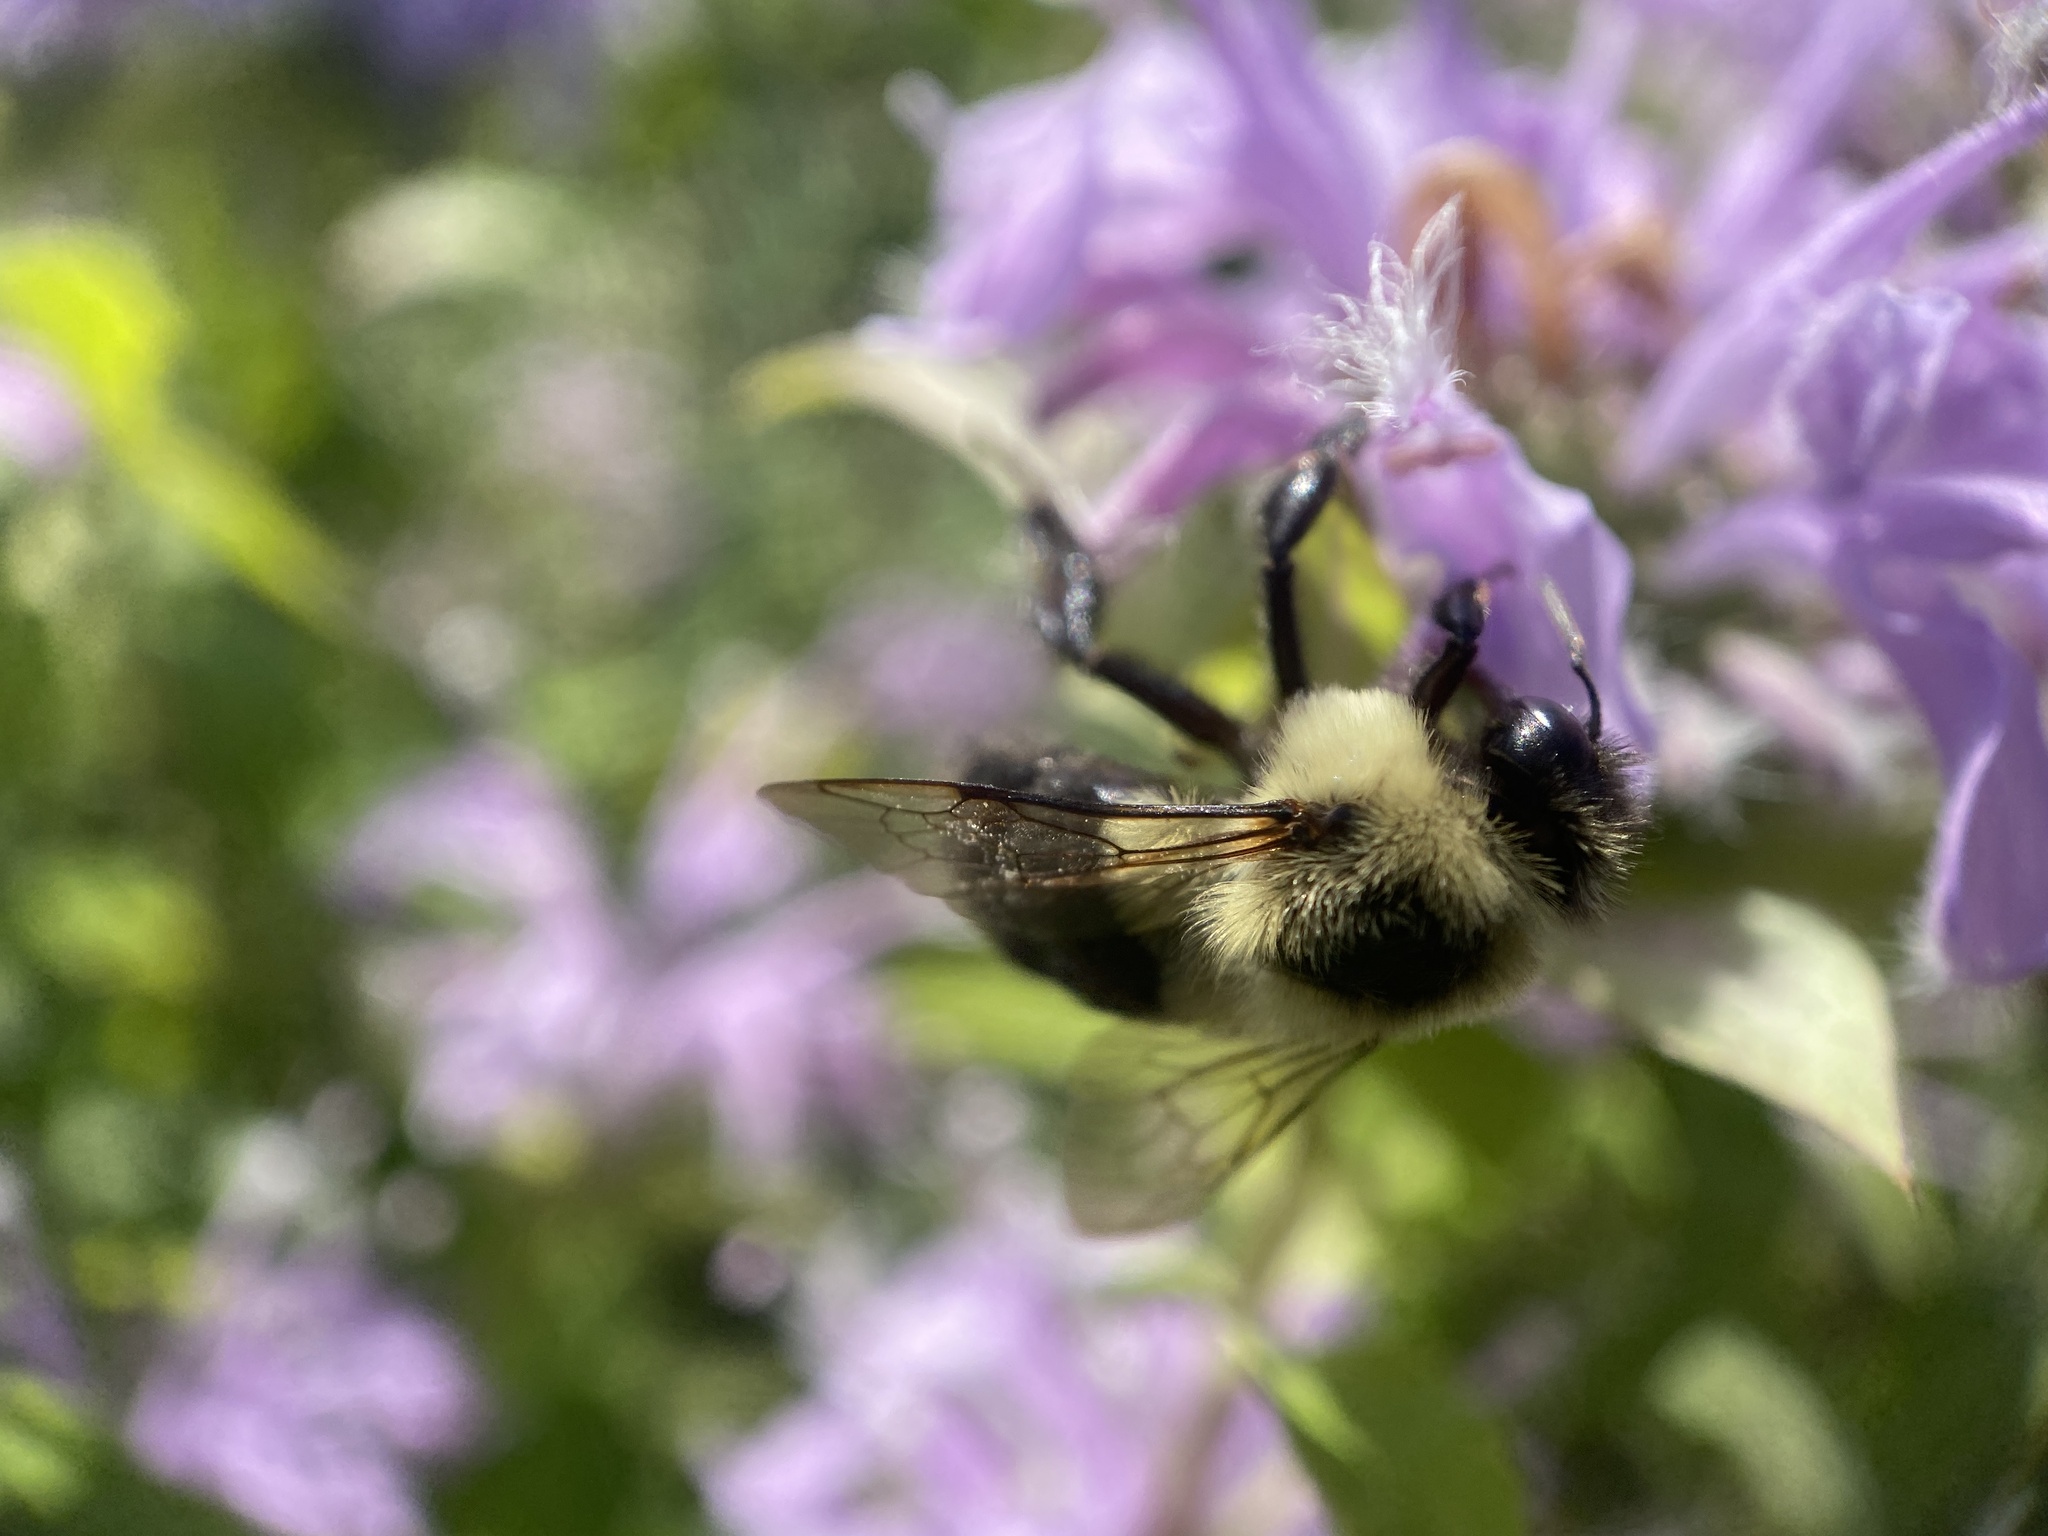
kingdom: Animalia
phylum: Arthropoda
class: Insecta
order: Hymenoptera
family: Apidae
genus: Bombus
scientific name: Bombus impatiens
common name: Common eastern bumble bee
